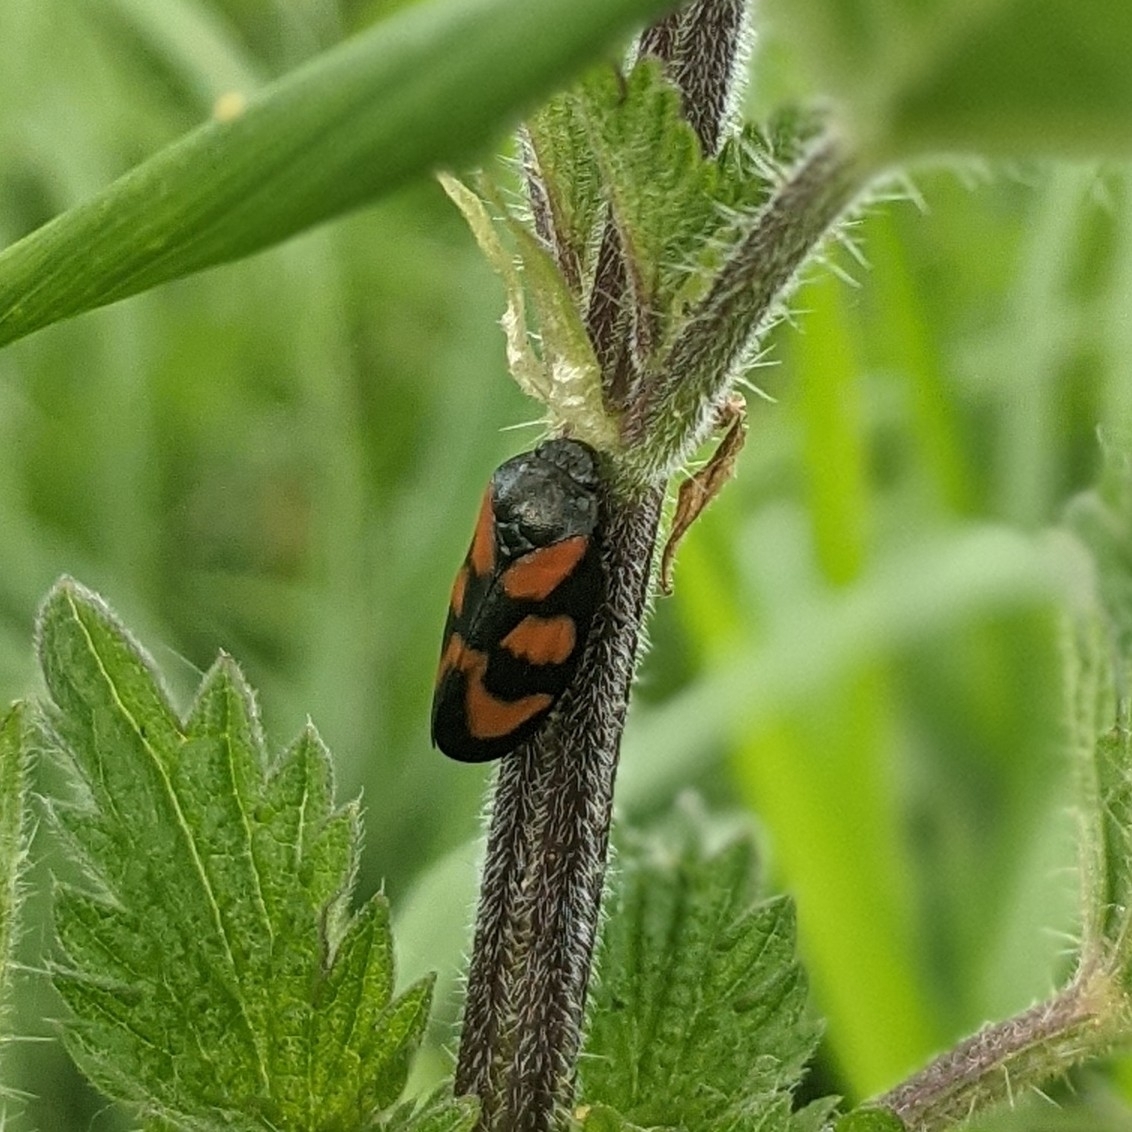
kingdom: Animalia
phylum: Arthropoda
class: Insecta
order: Hemiptera
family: Cercopidae
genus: Cercopis
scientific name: Cercopis vulnerata
